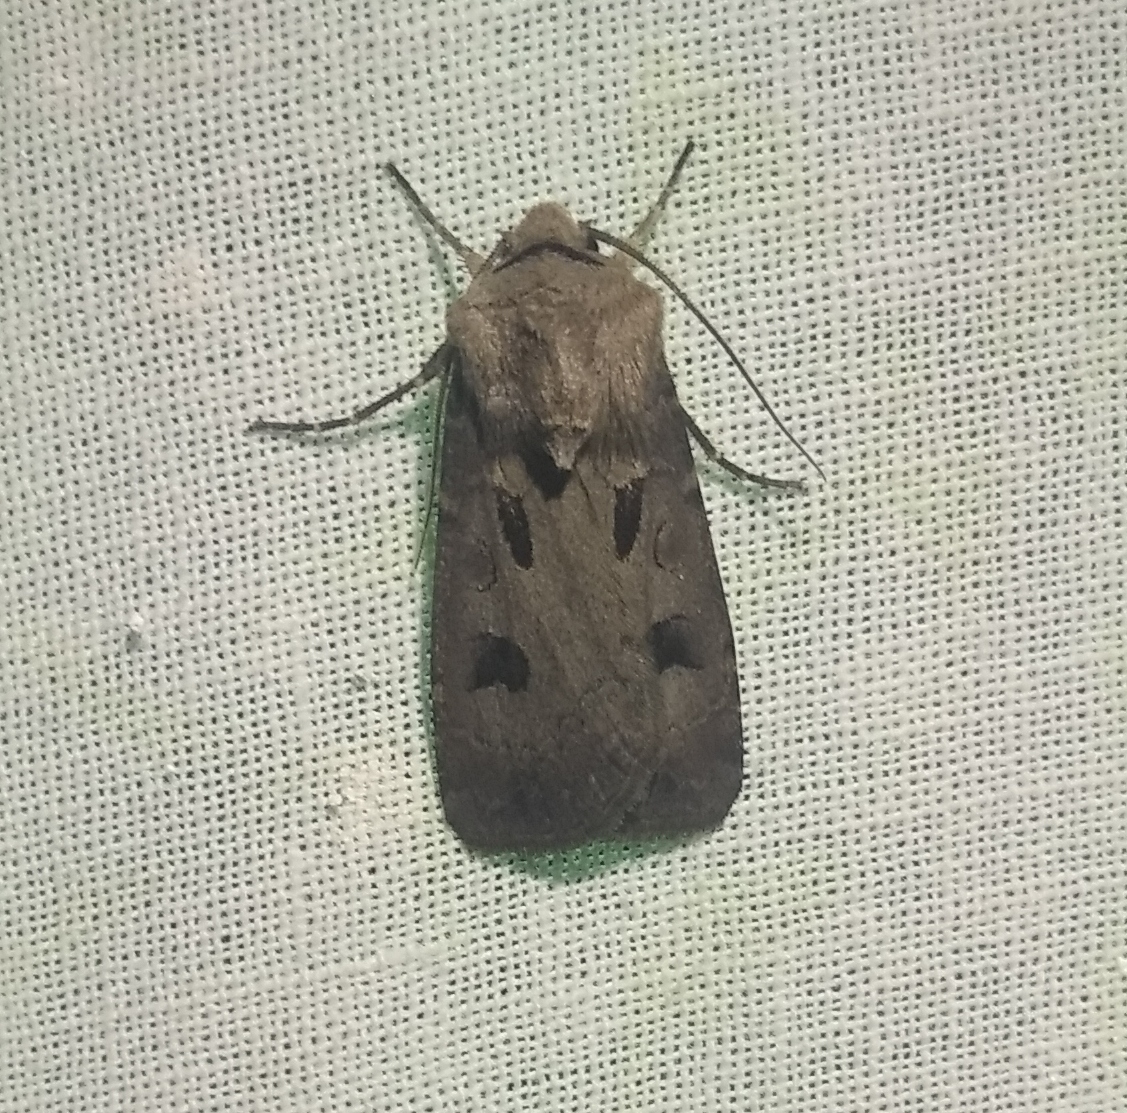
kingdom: Animalia
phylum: Arthropoda
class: Insecta
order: Lepidoptera
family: Noctuidae
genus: Agrotis
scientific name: Agrotis exclamationis
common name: Heart and dart
